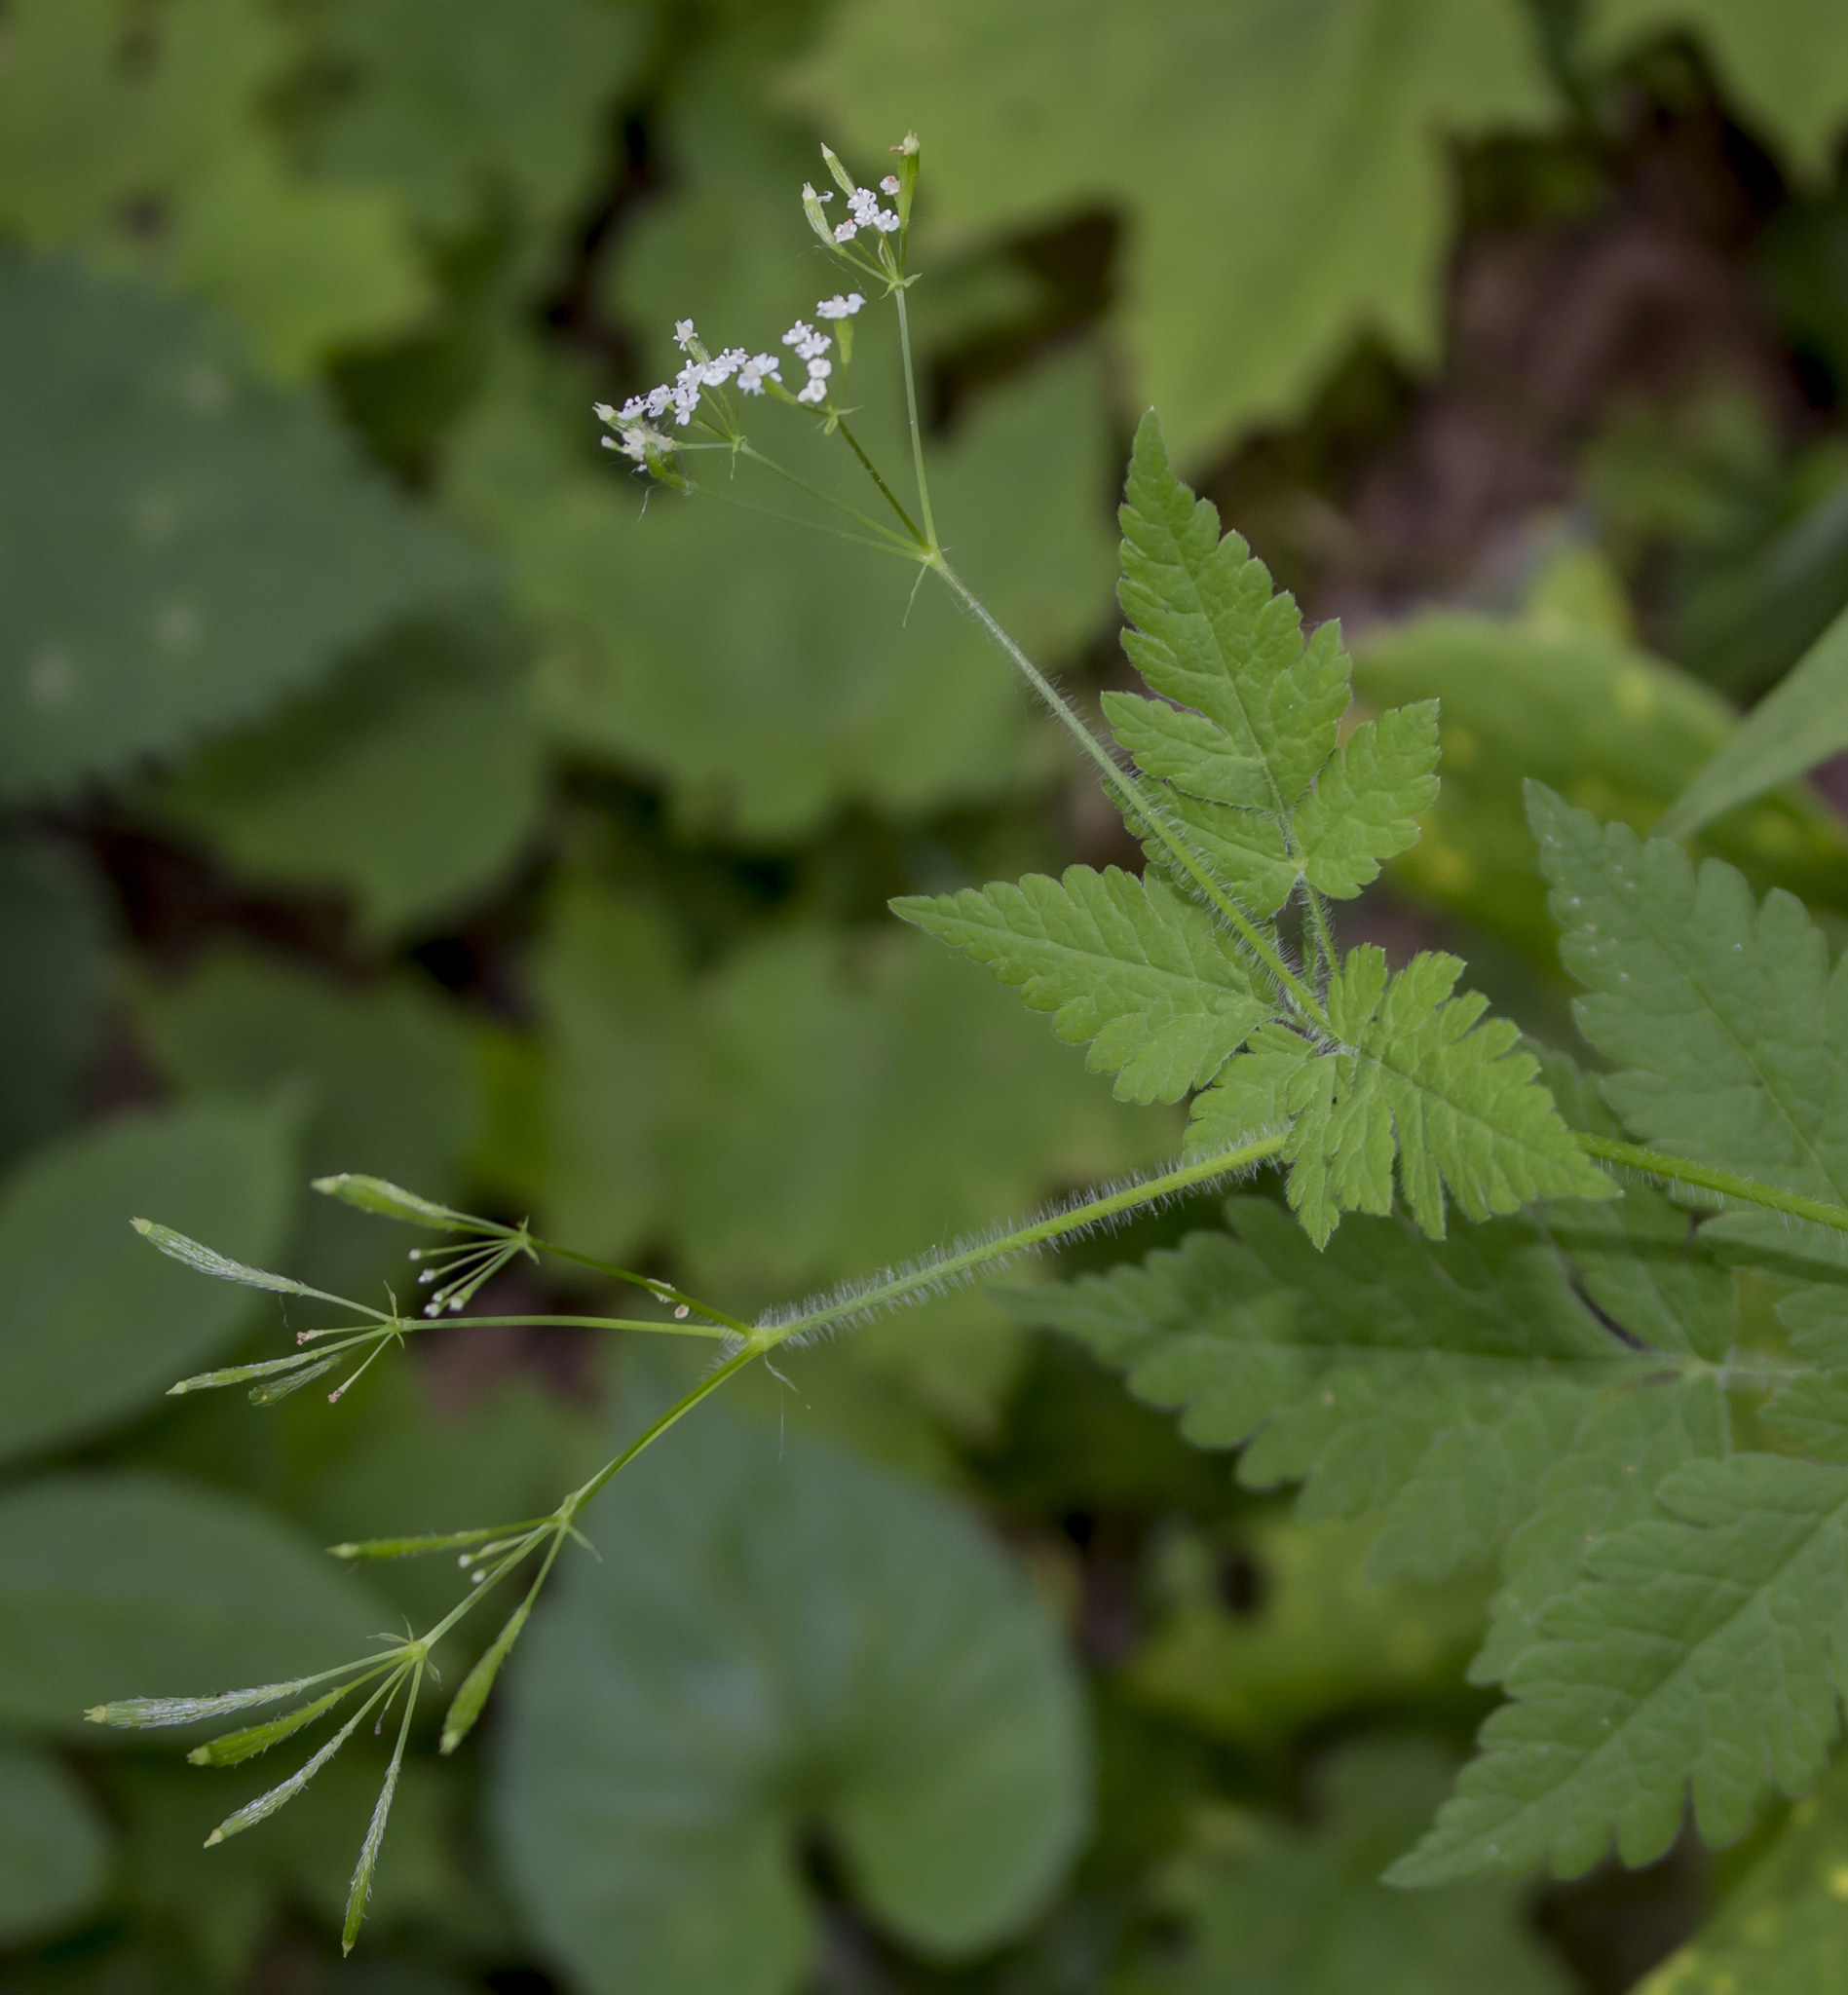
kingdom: Plantae
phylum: Tracheophyta
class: Magnoliopsida
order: Apiales
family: Apiaceae
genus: Osmorhiza
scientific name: Osmorhiza claytonii
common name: Hairy sweet cicely
